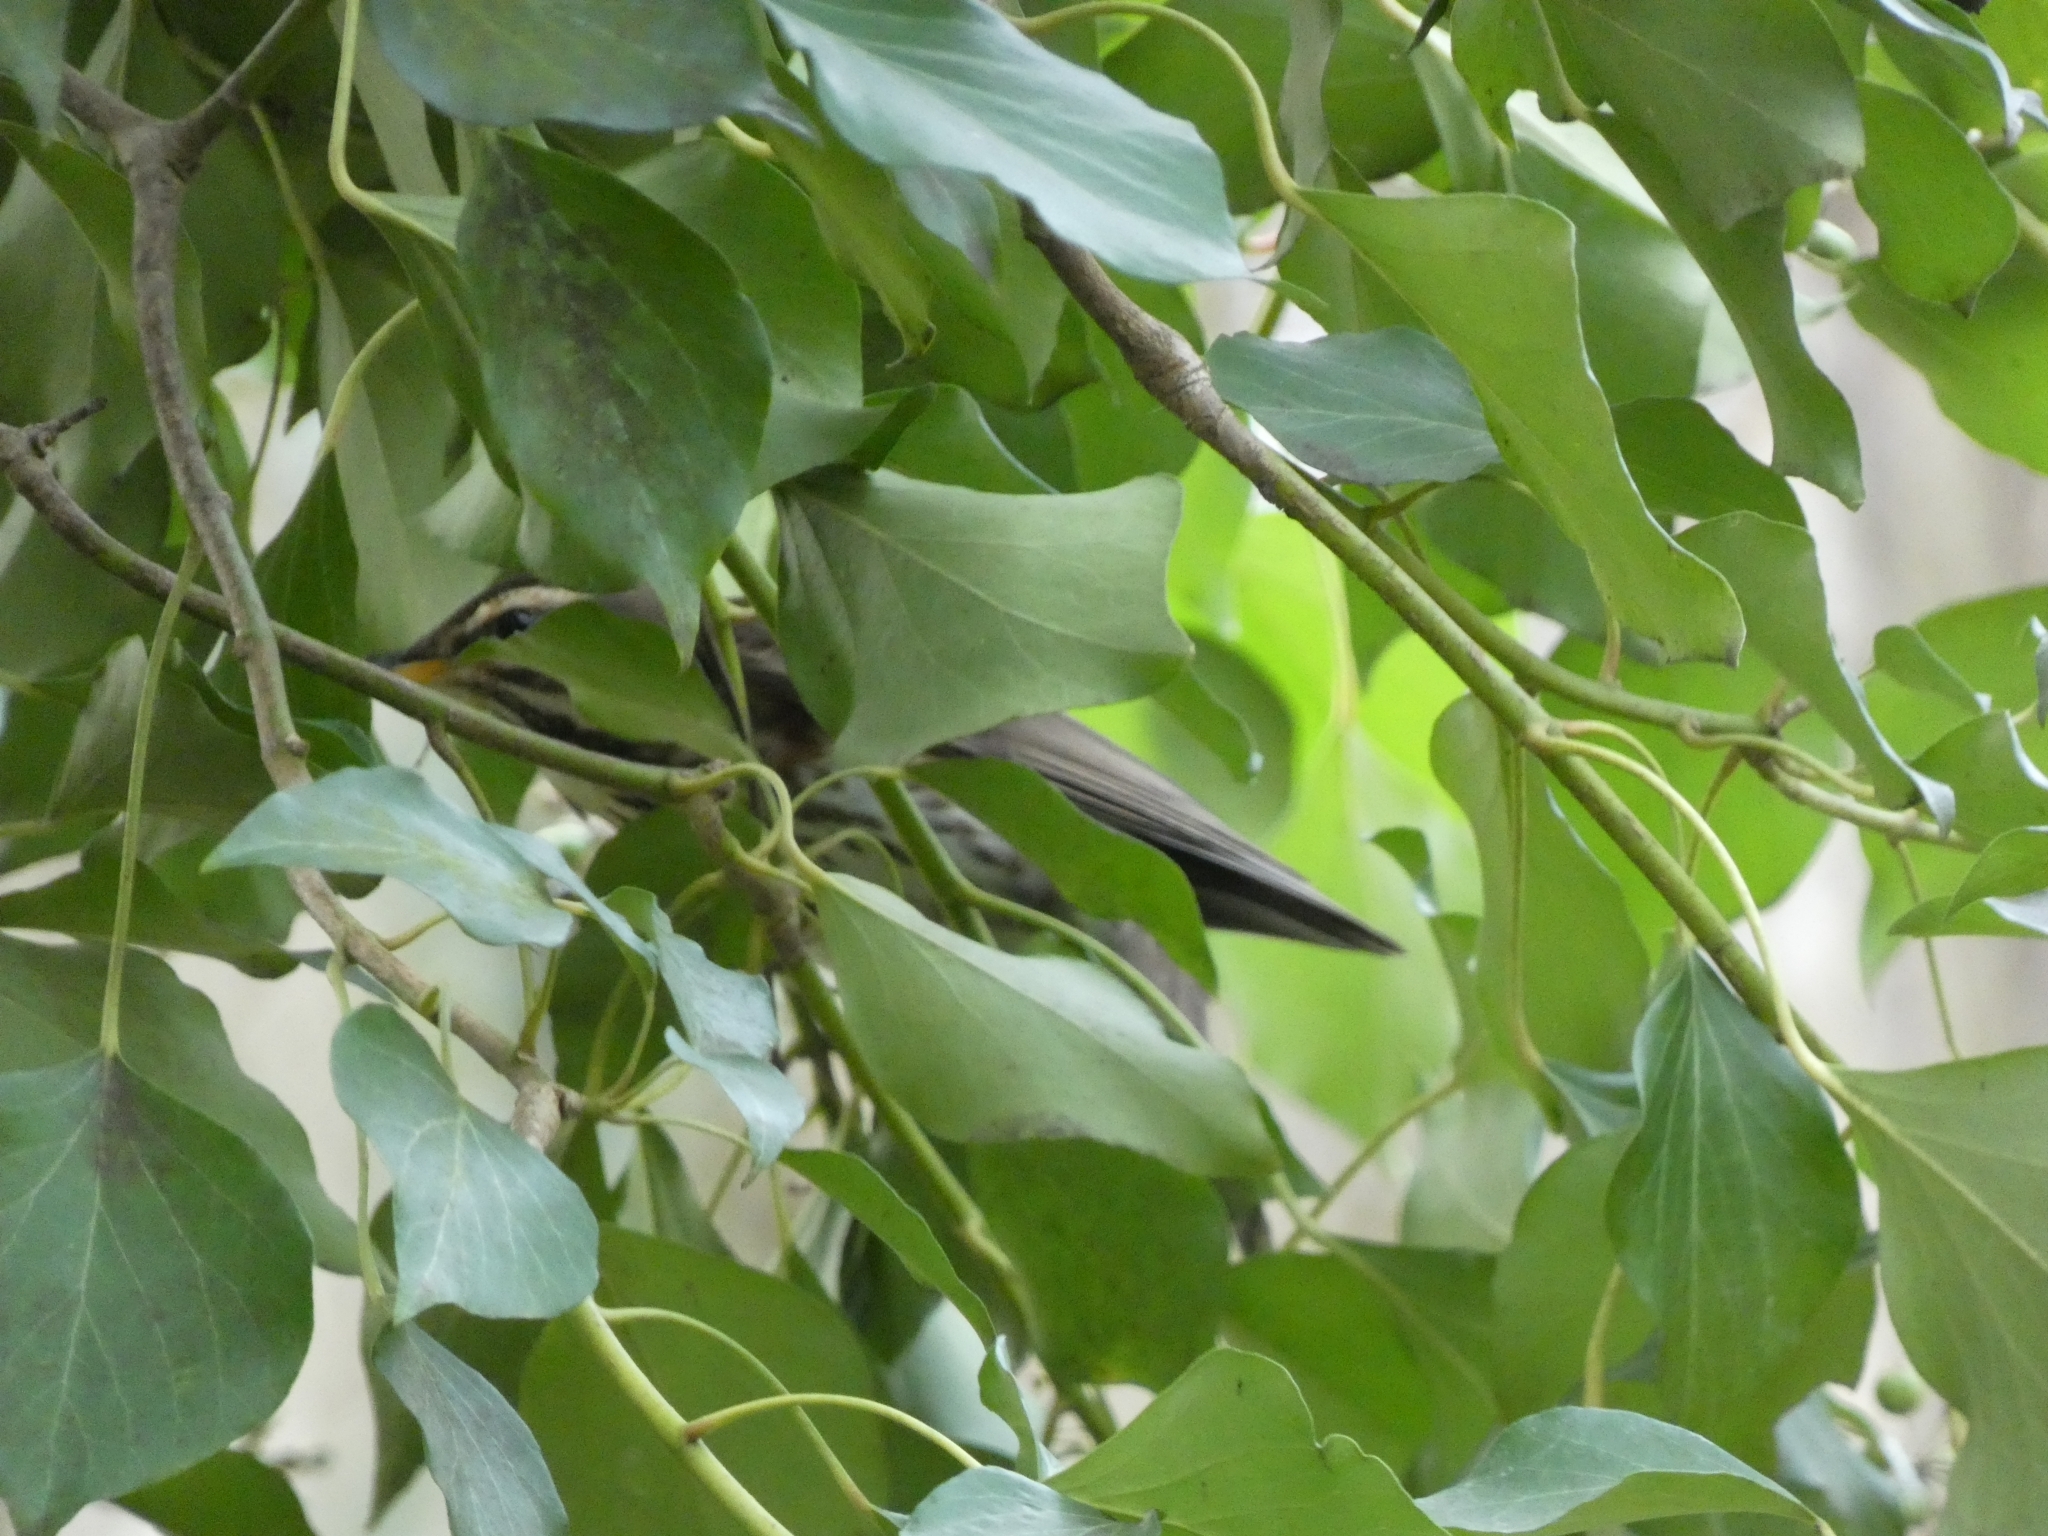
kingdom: Animalia
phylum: Chordata
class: Aves
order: Passeriformes
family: Turdidae
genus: Turdus
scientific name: Turdus iliacus
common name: Redwing
